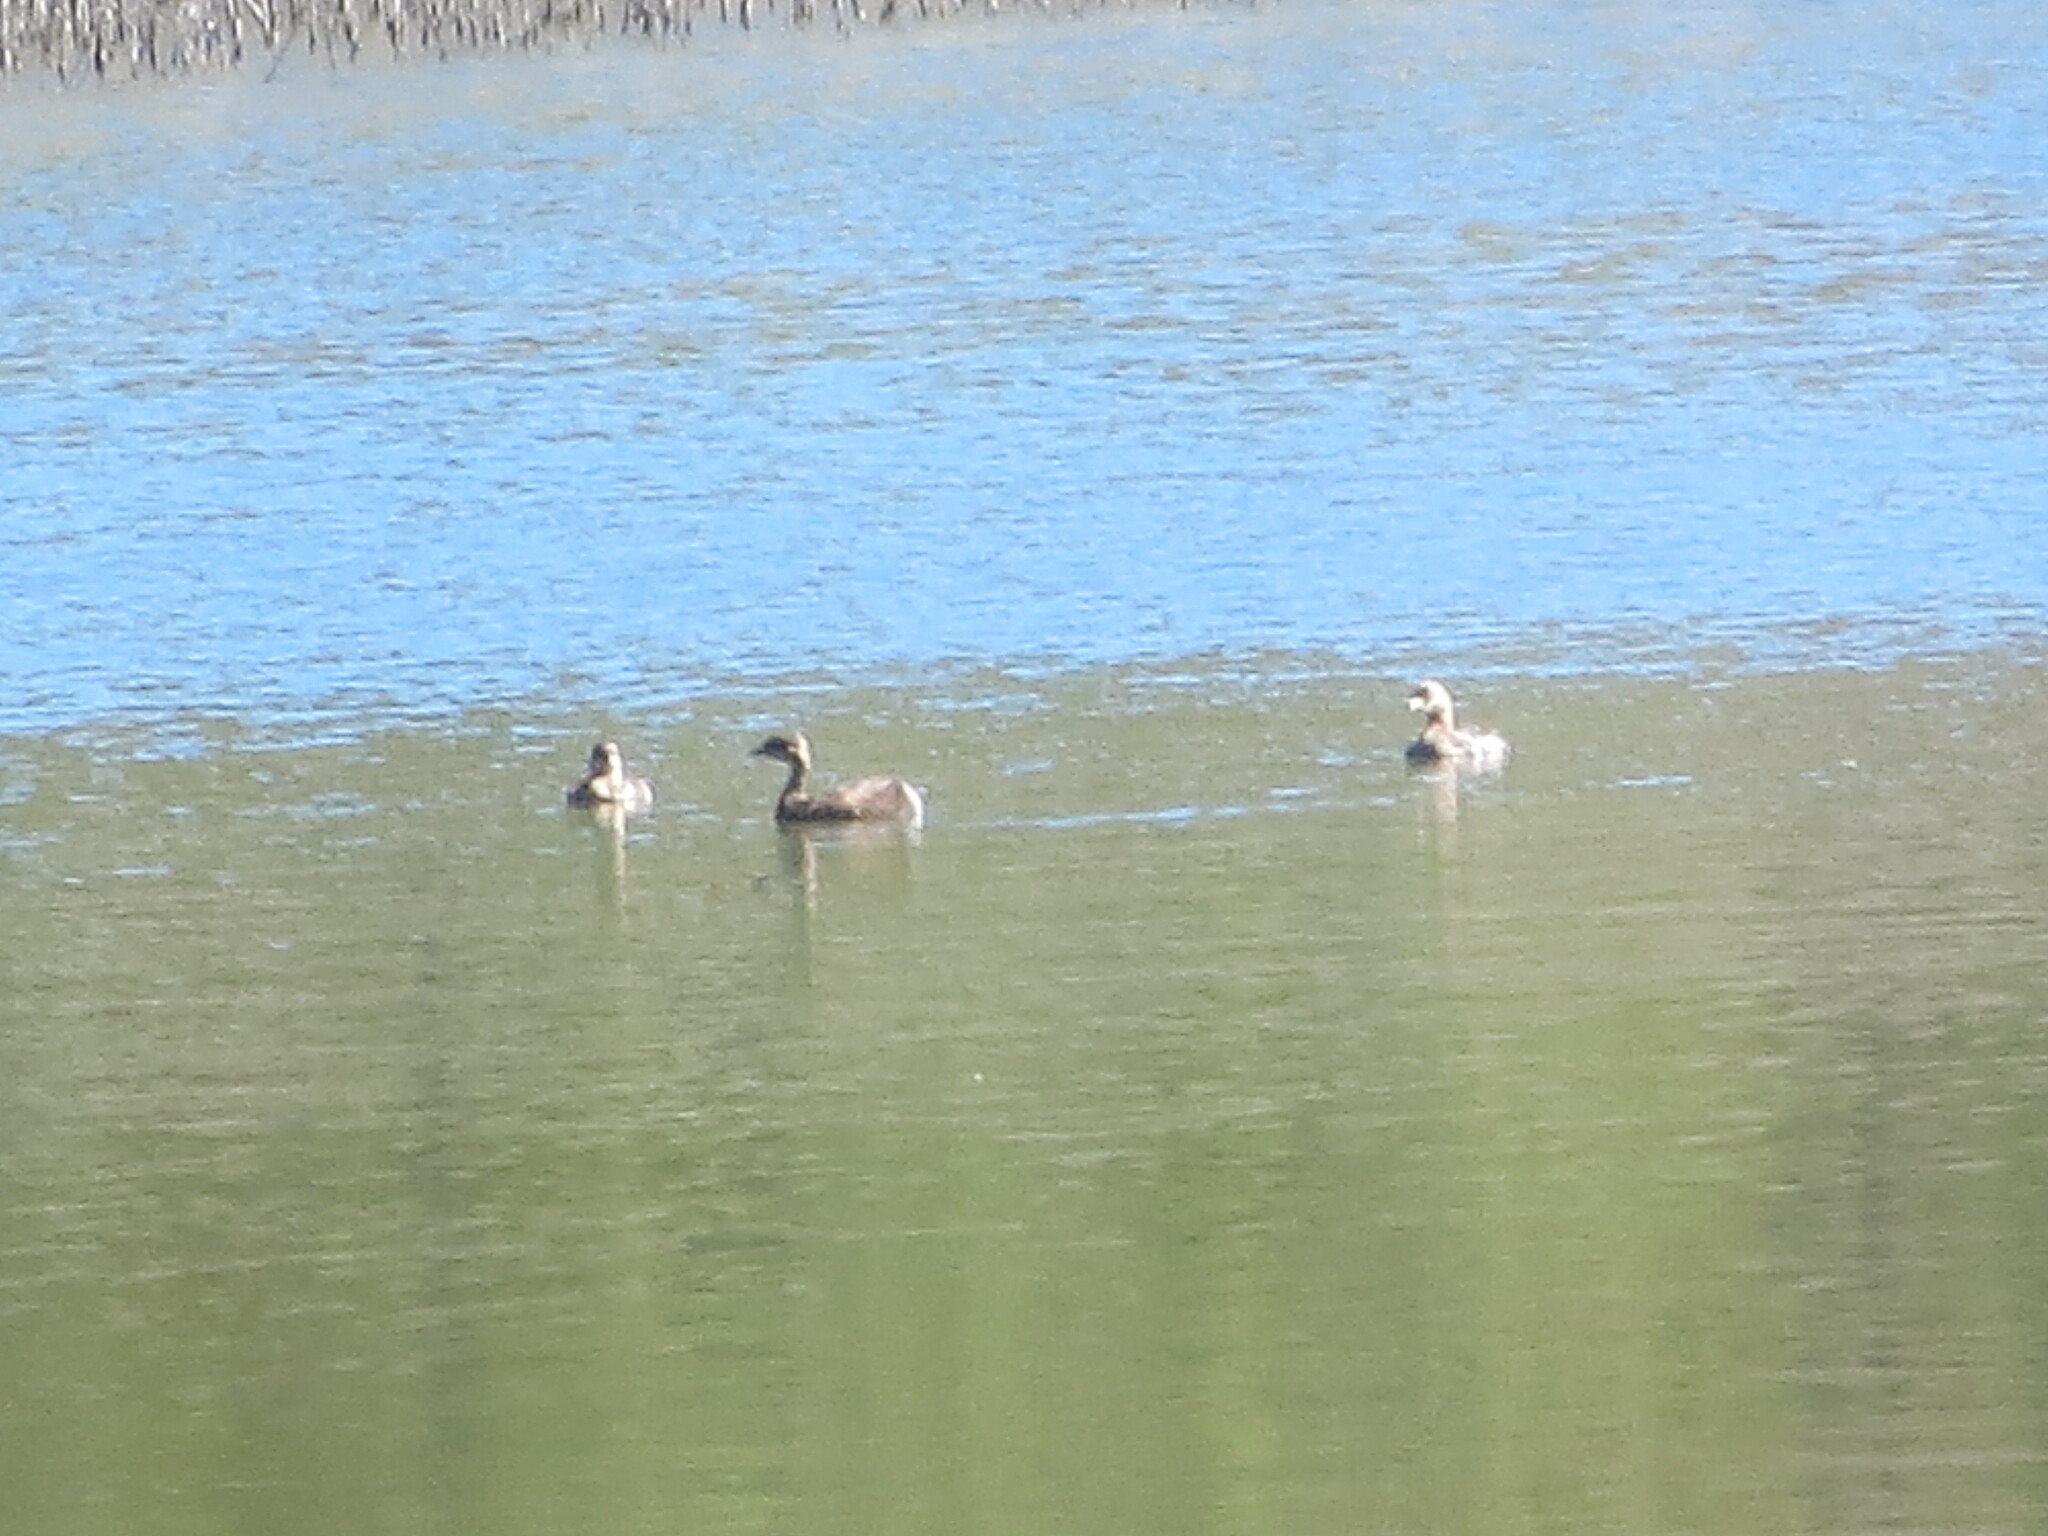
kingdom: Animalia
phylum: Chordata
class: Aves
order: Podicipediformes
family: Podicipedidae
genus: Podilymbus
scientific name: Podilymbus podiceps
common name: Pied-billed grebe
